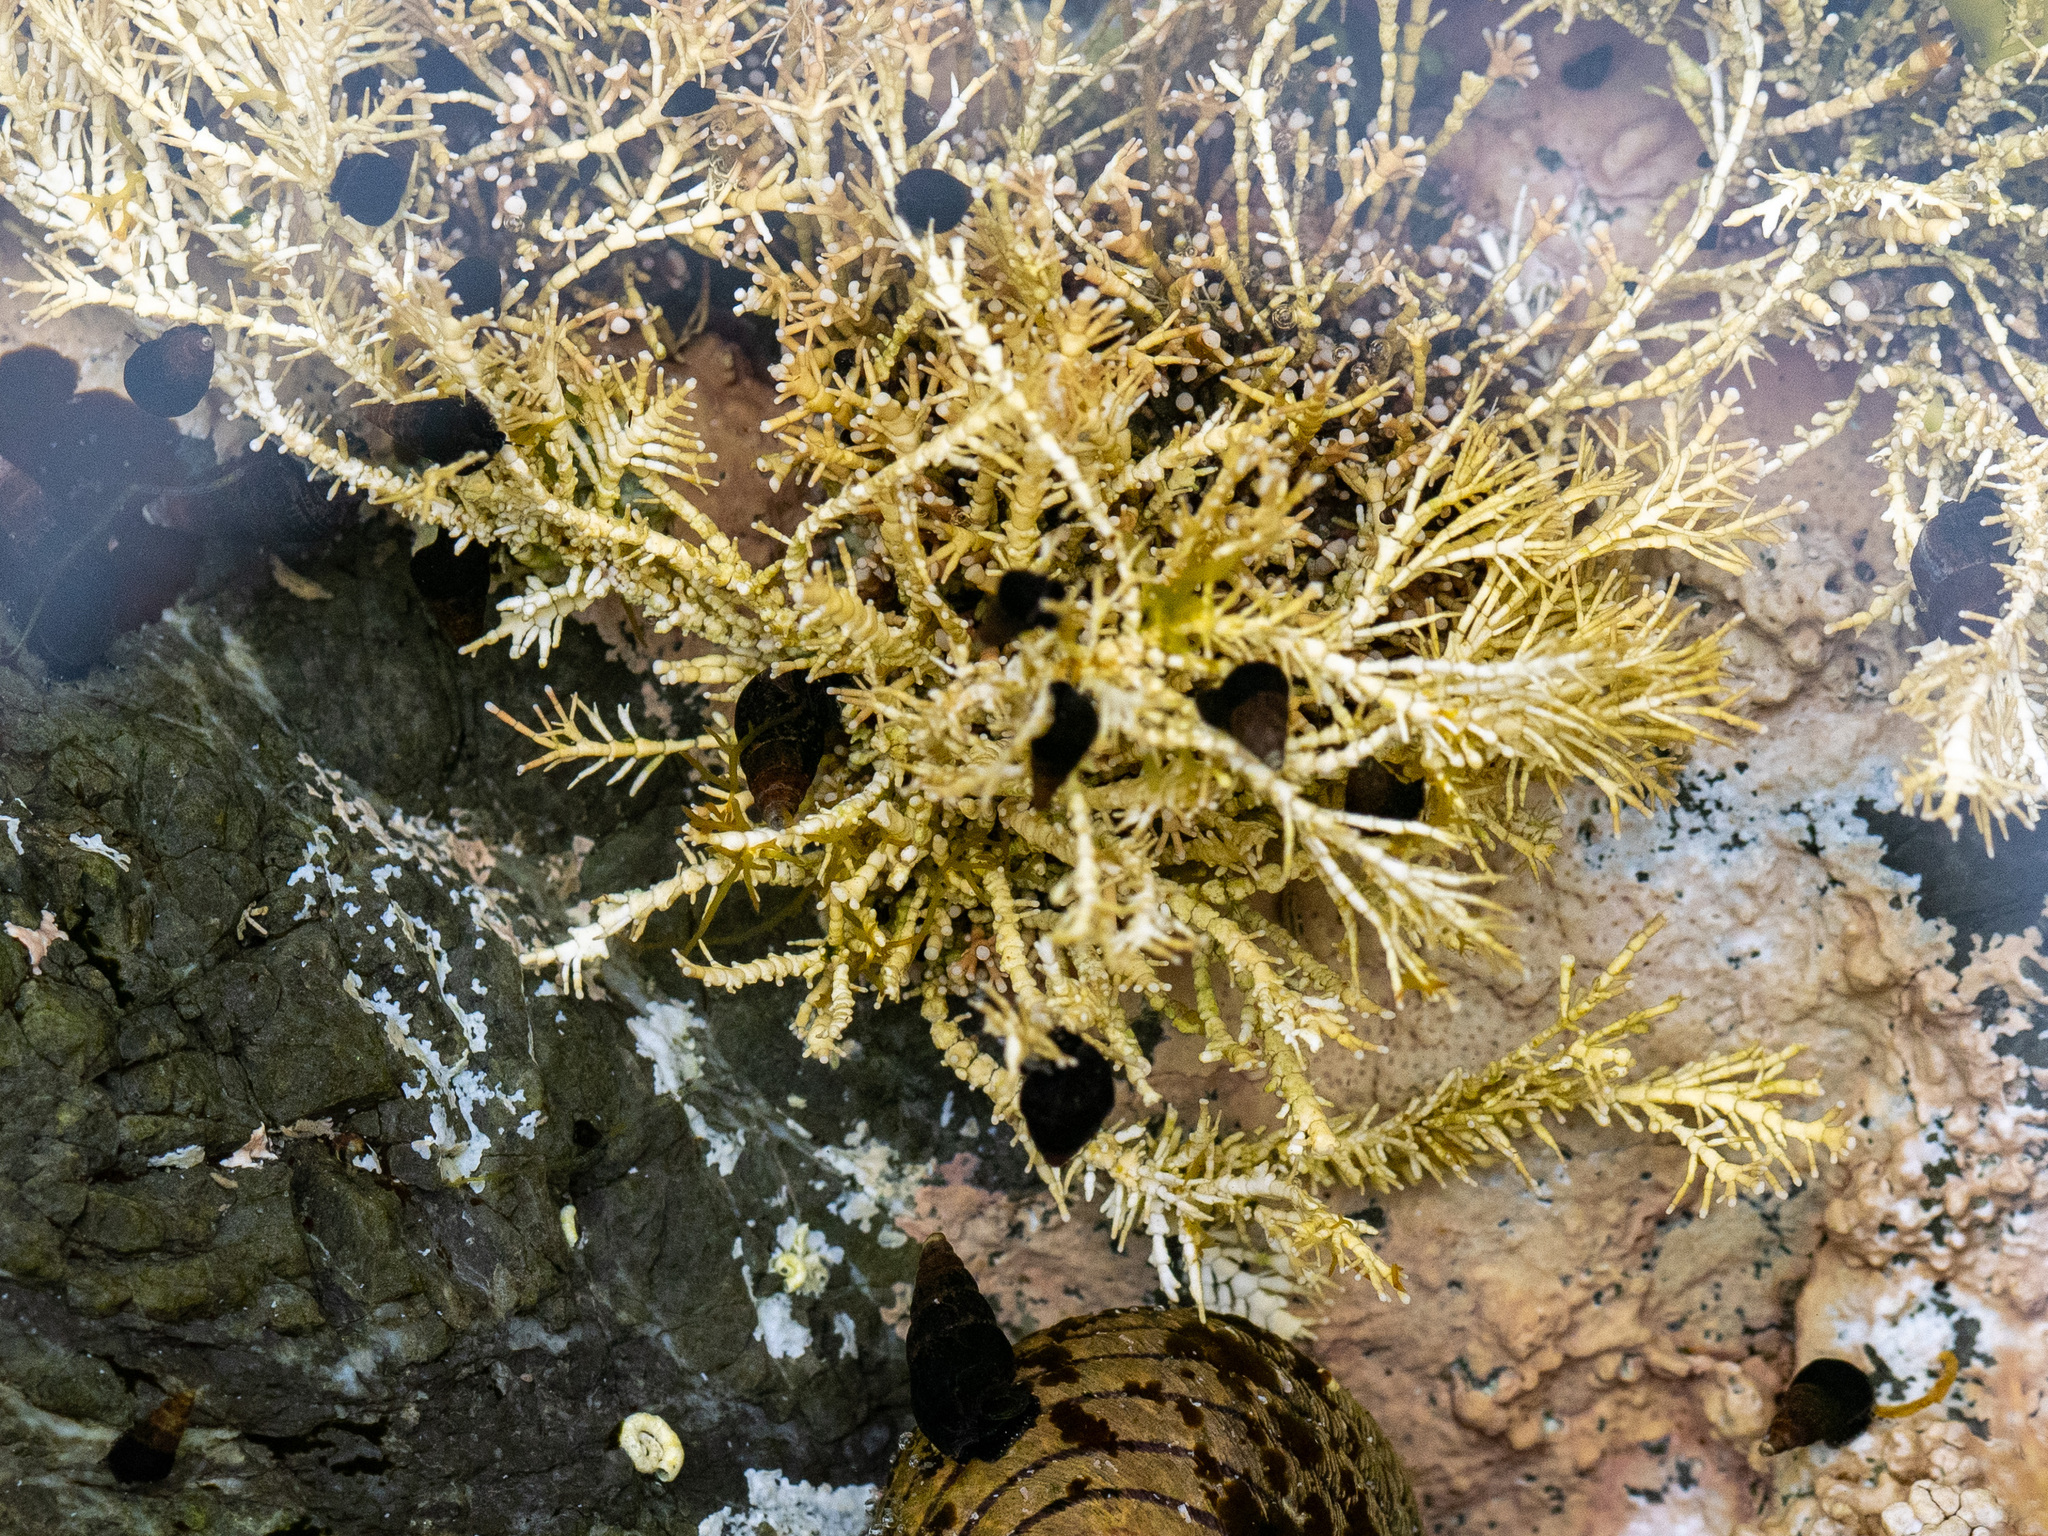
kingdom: Animalia
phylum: Mollusca
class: Gastropoda
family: Batillariidae
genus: Zeacumantus
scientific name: Zeacumantus subcarinatus
